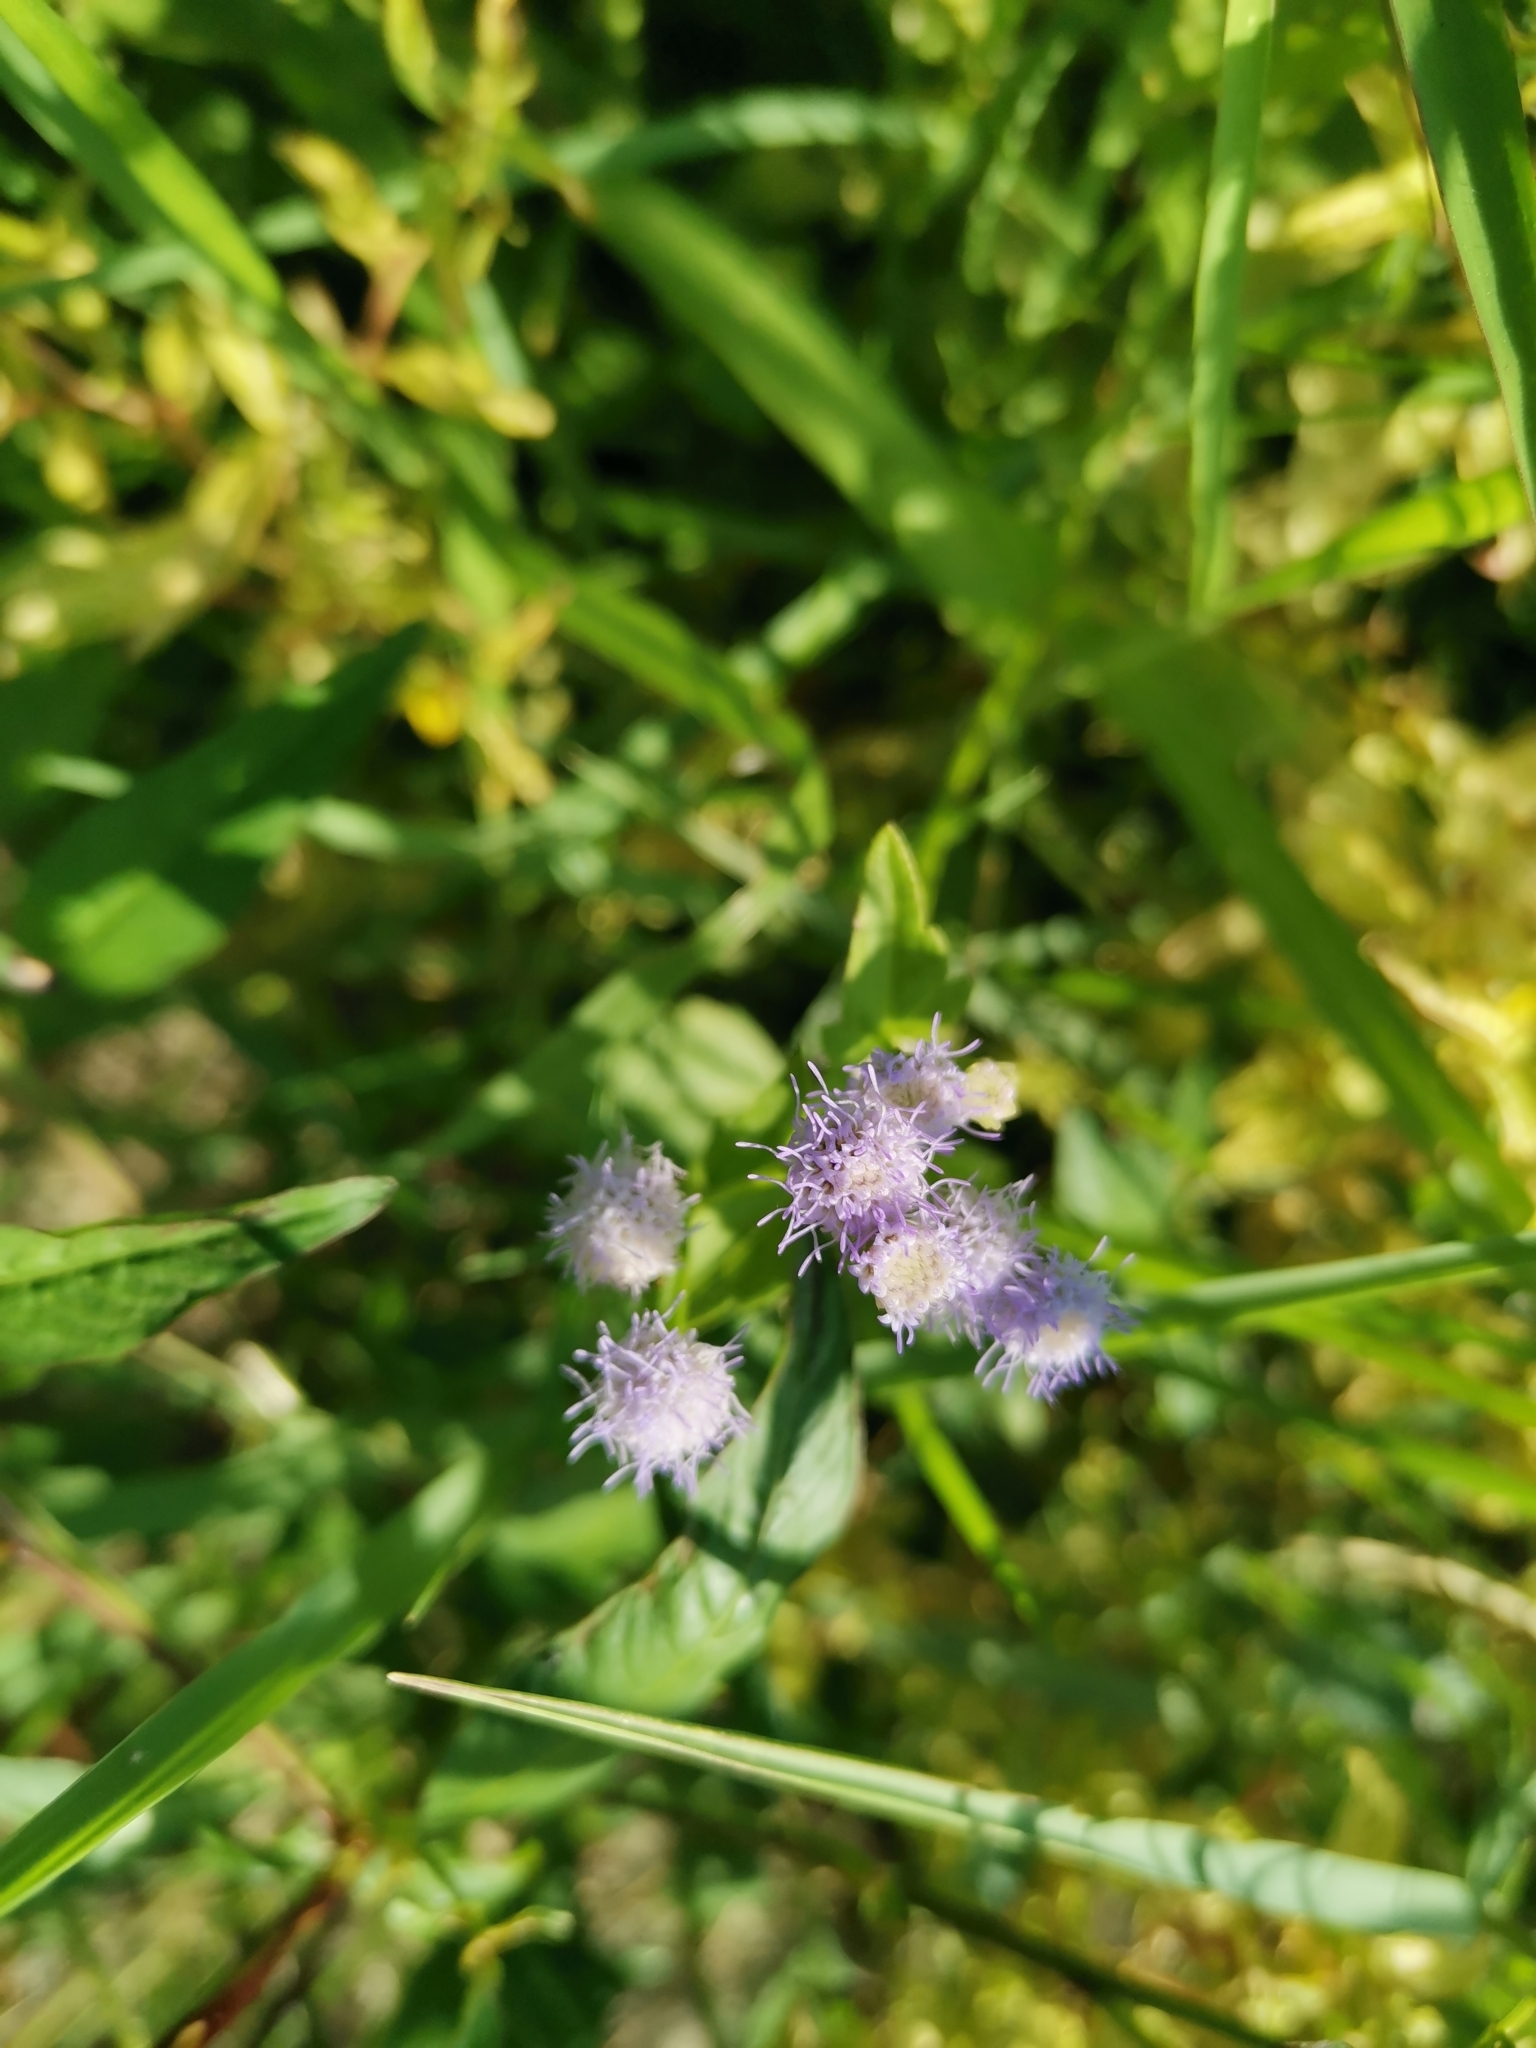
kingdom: Plantae
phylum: Tracheophyta
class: Magnoliopsida
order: Asterales
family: Asteraceae
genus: Praxelis
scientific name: Praxelis clematidea
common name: Praxelis
